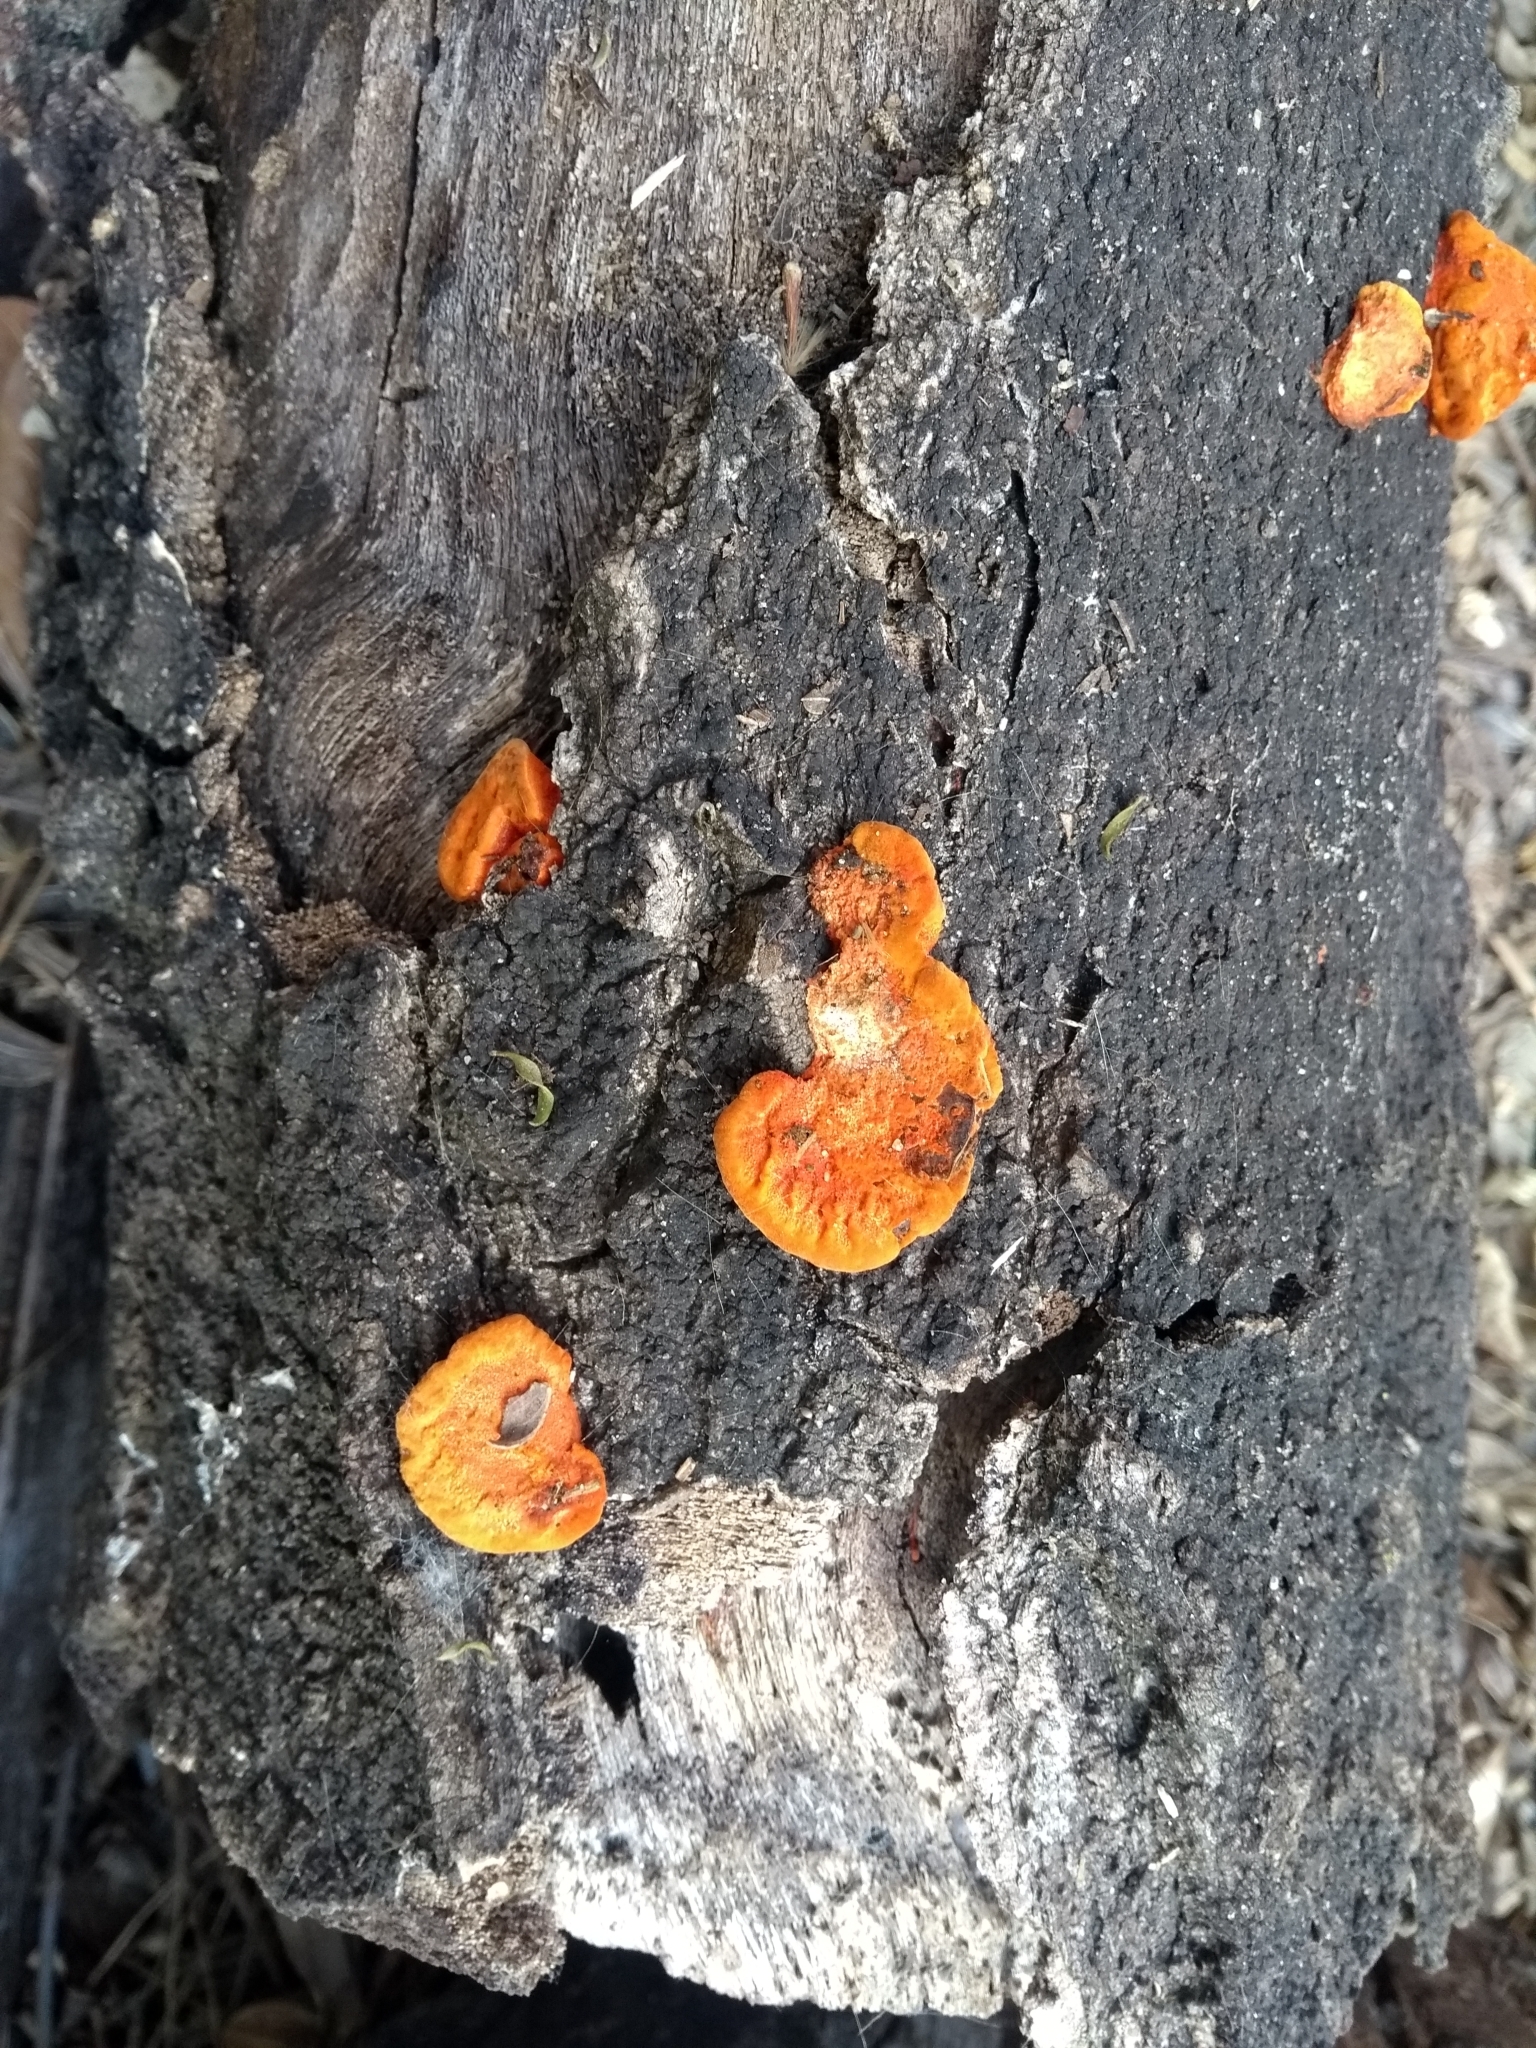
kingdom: Fungi
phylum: Basidiomycota
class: Agaricomycetes
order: Polyporales
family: Polyporaceae
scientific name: Polyporaceae
